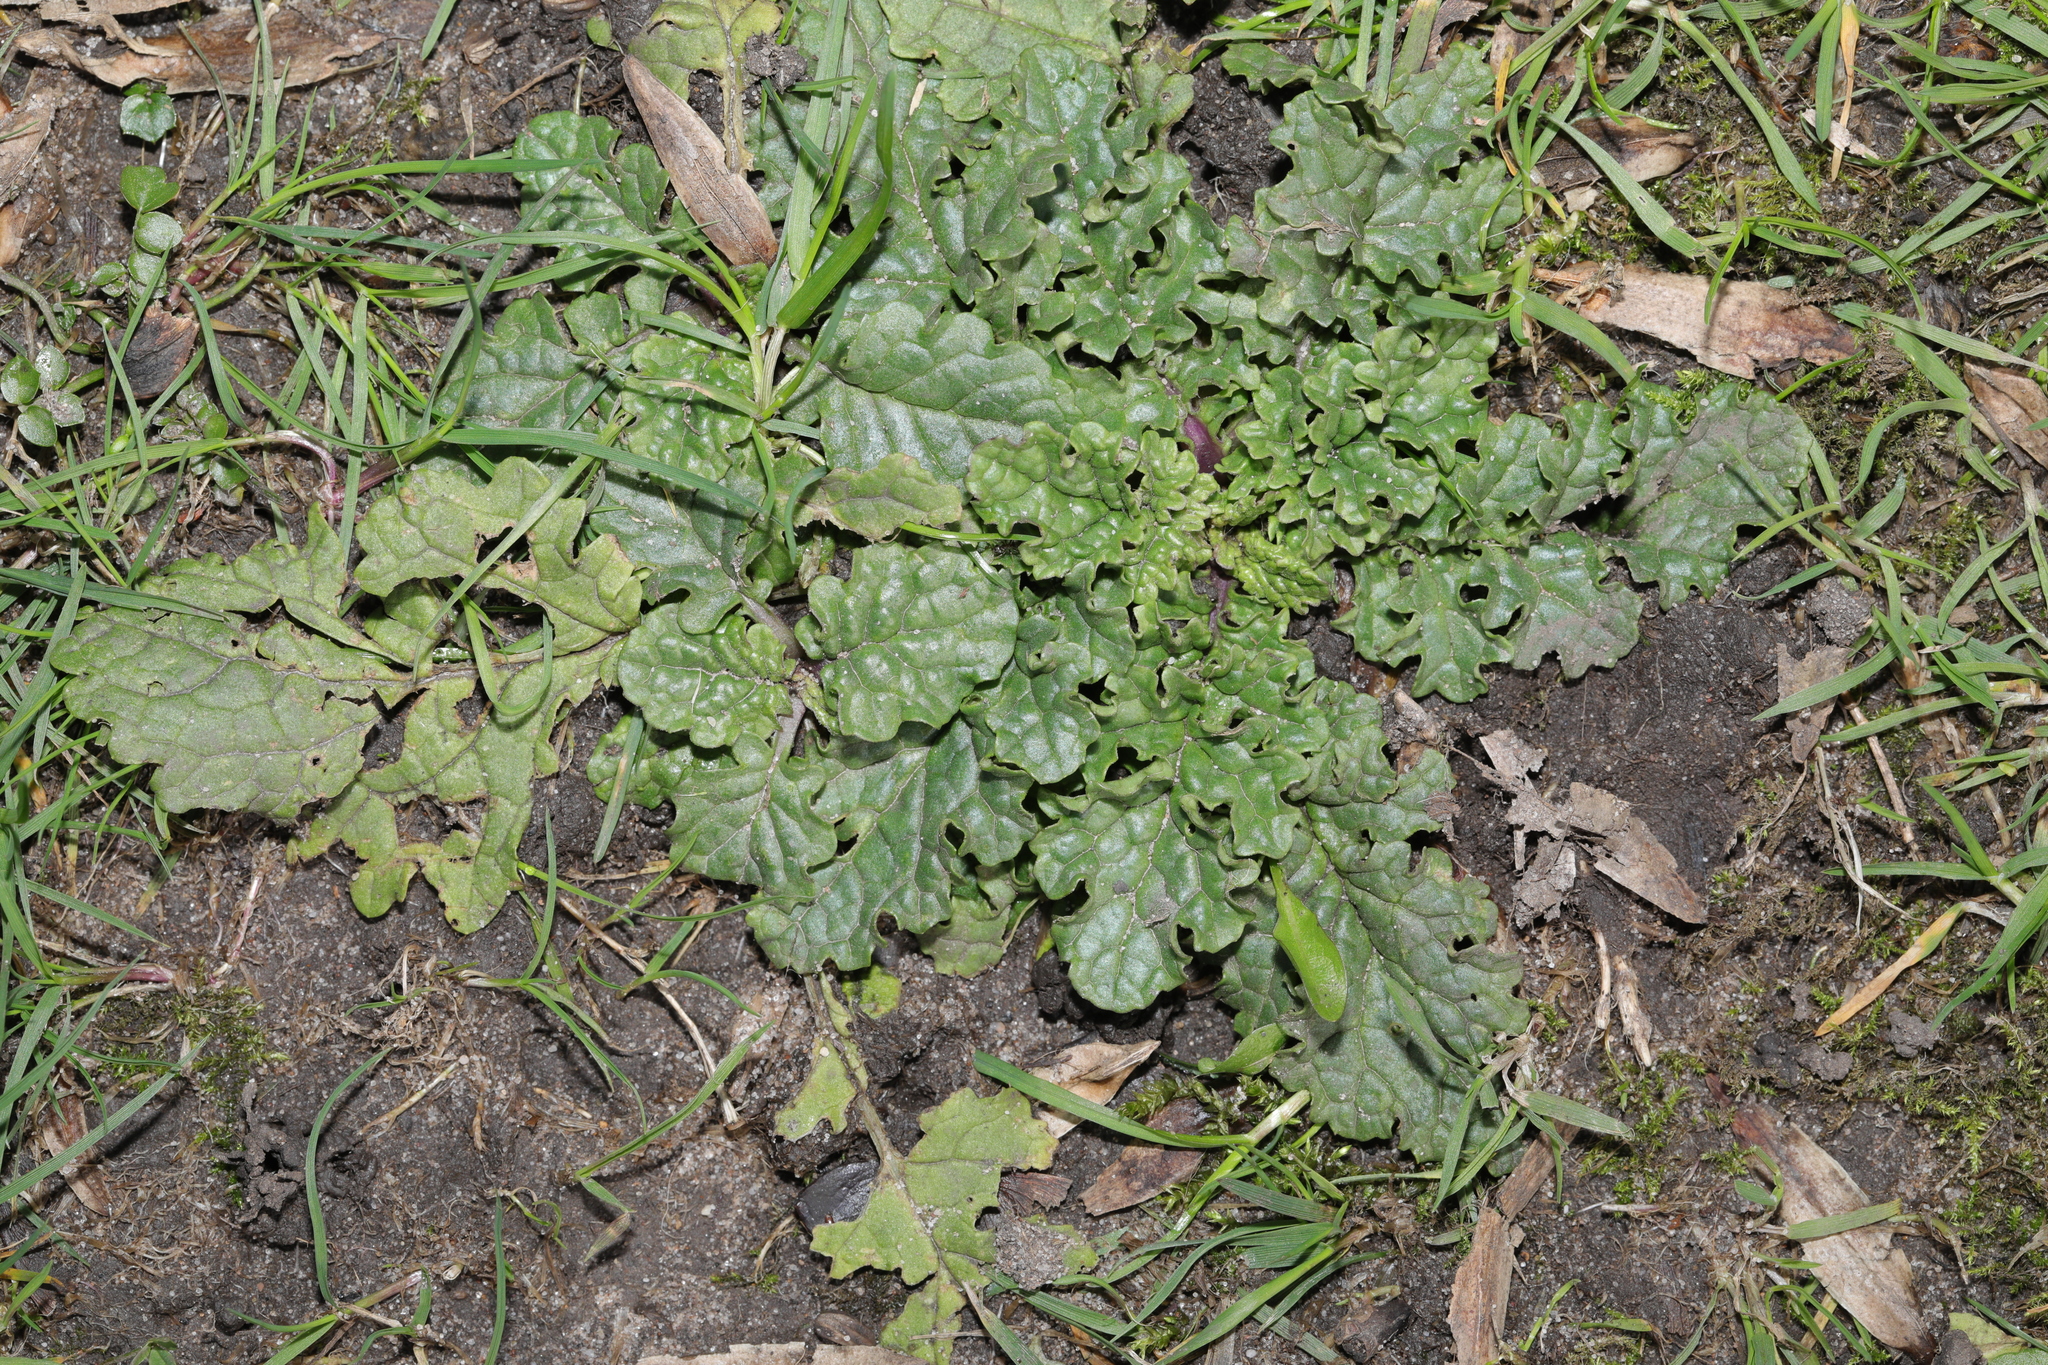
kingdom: Plantae
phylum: Tracheophyta
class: Magnoliopsida
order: Asterales
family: Asteraceae
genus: Jacobaea
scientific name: Jacobaea vulgaris
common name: Stinking willie
